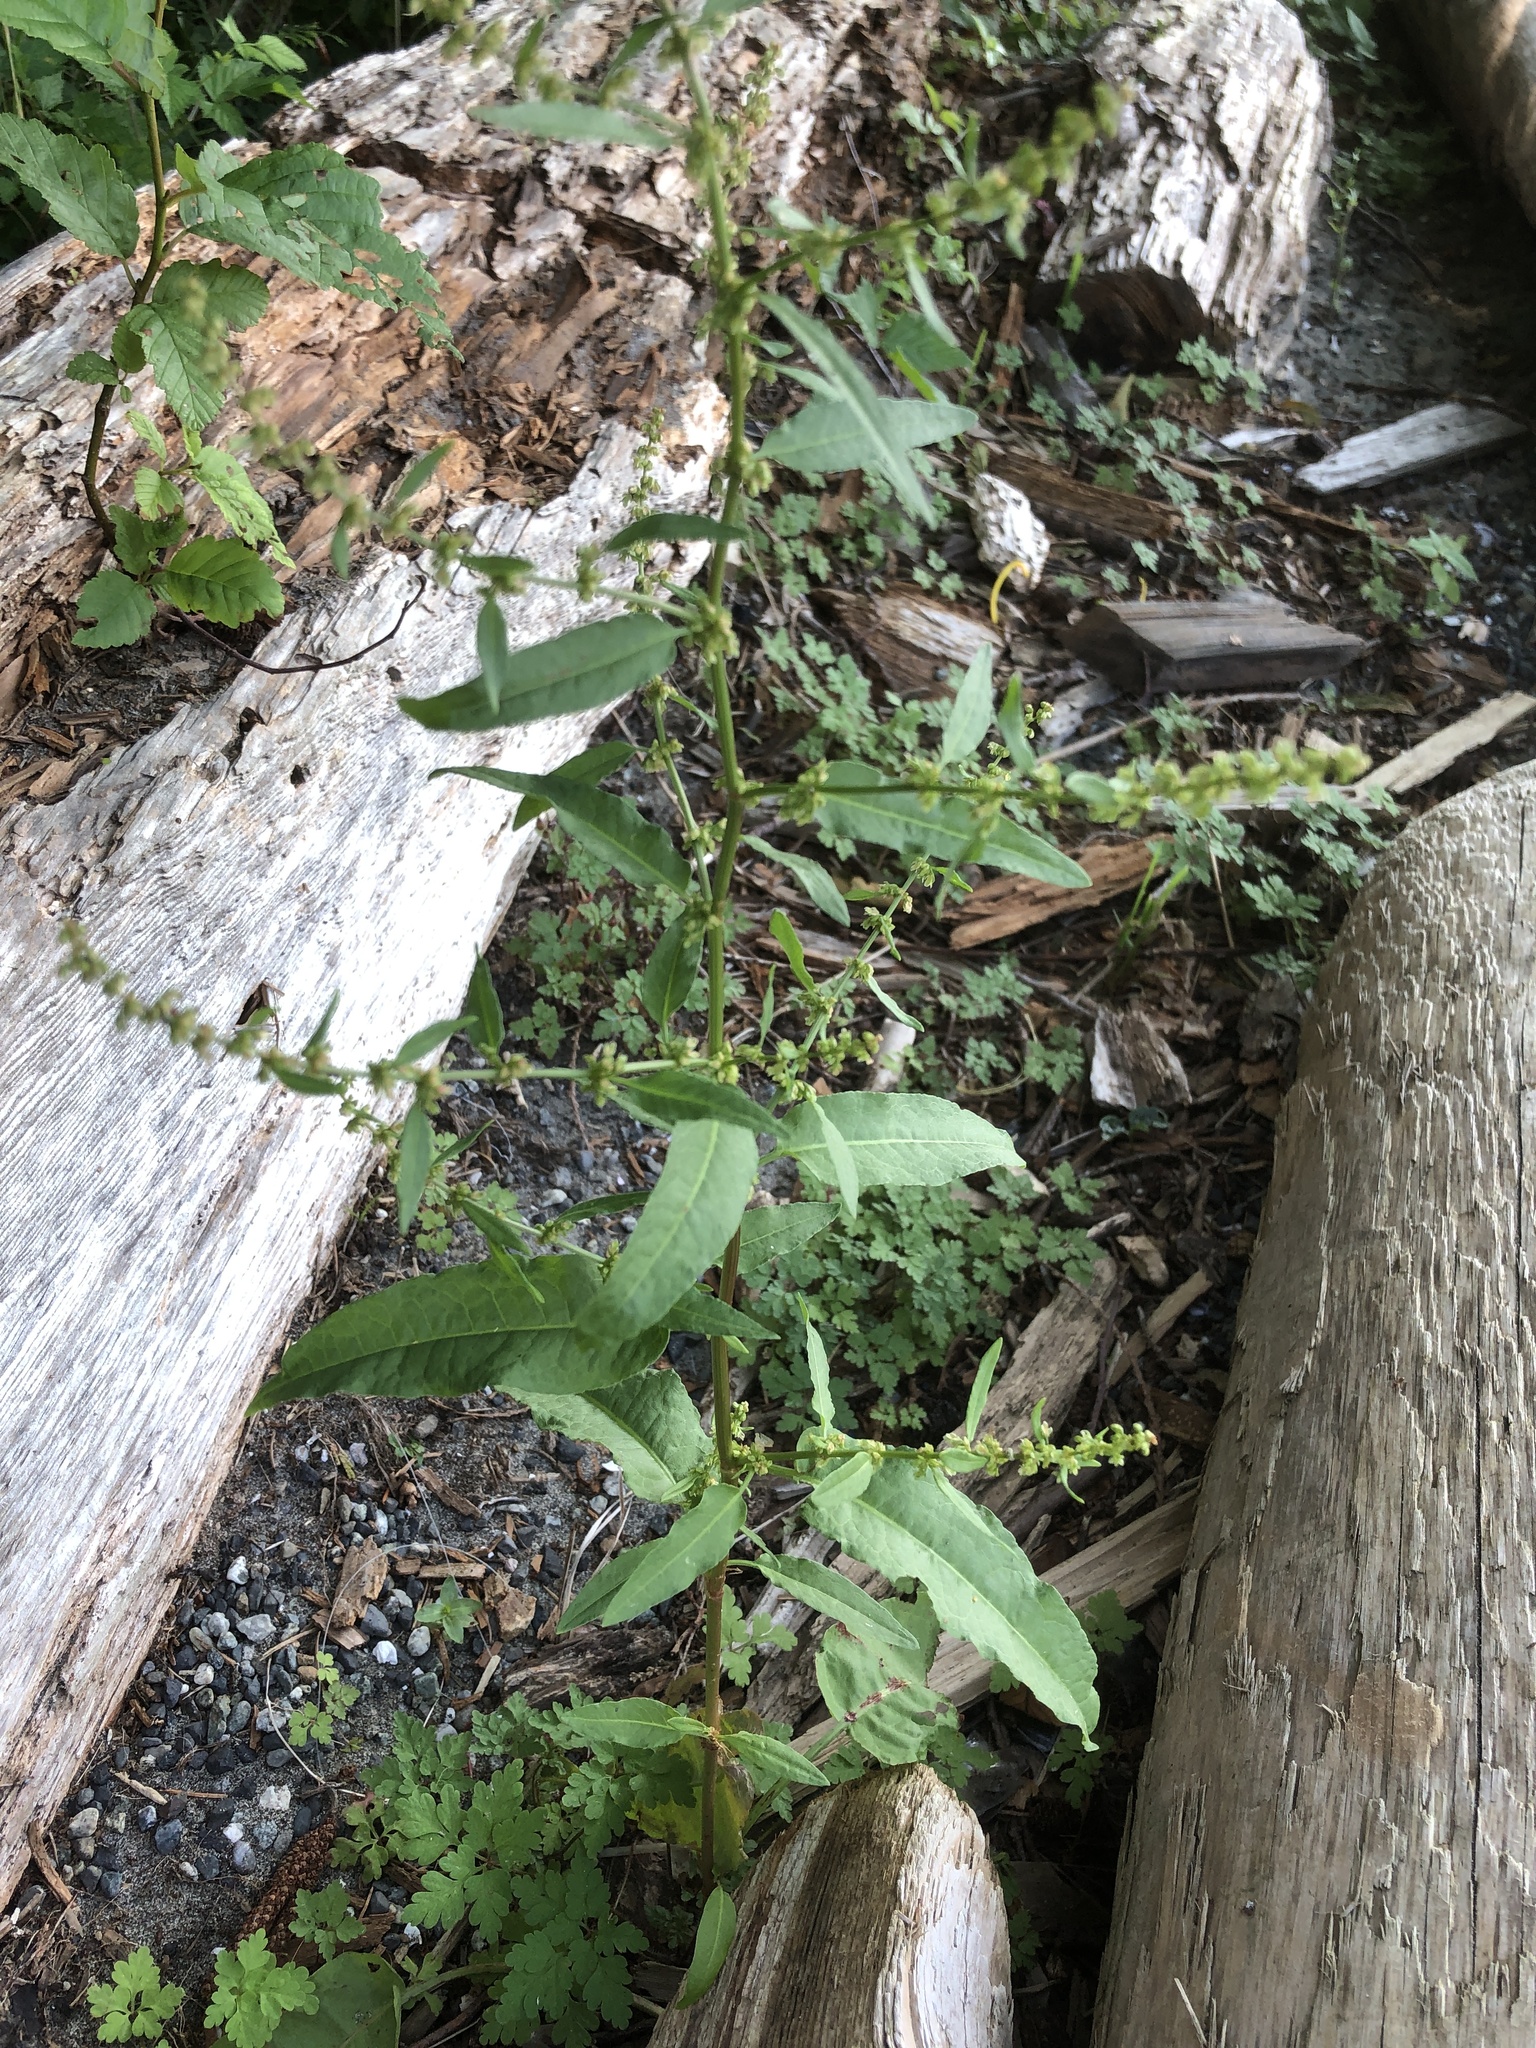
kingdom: Plantae
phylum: Tracheophyta
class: Magnoliopsida
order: Caryophyllales
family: Polygonaceae
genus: Rumex
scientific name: Rumex conglomeratus
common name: Clustered dock
